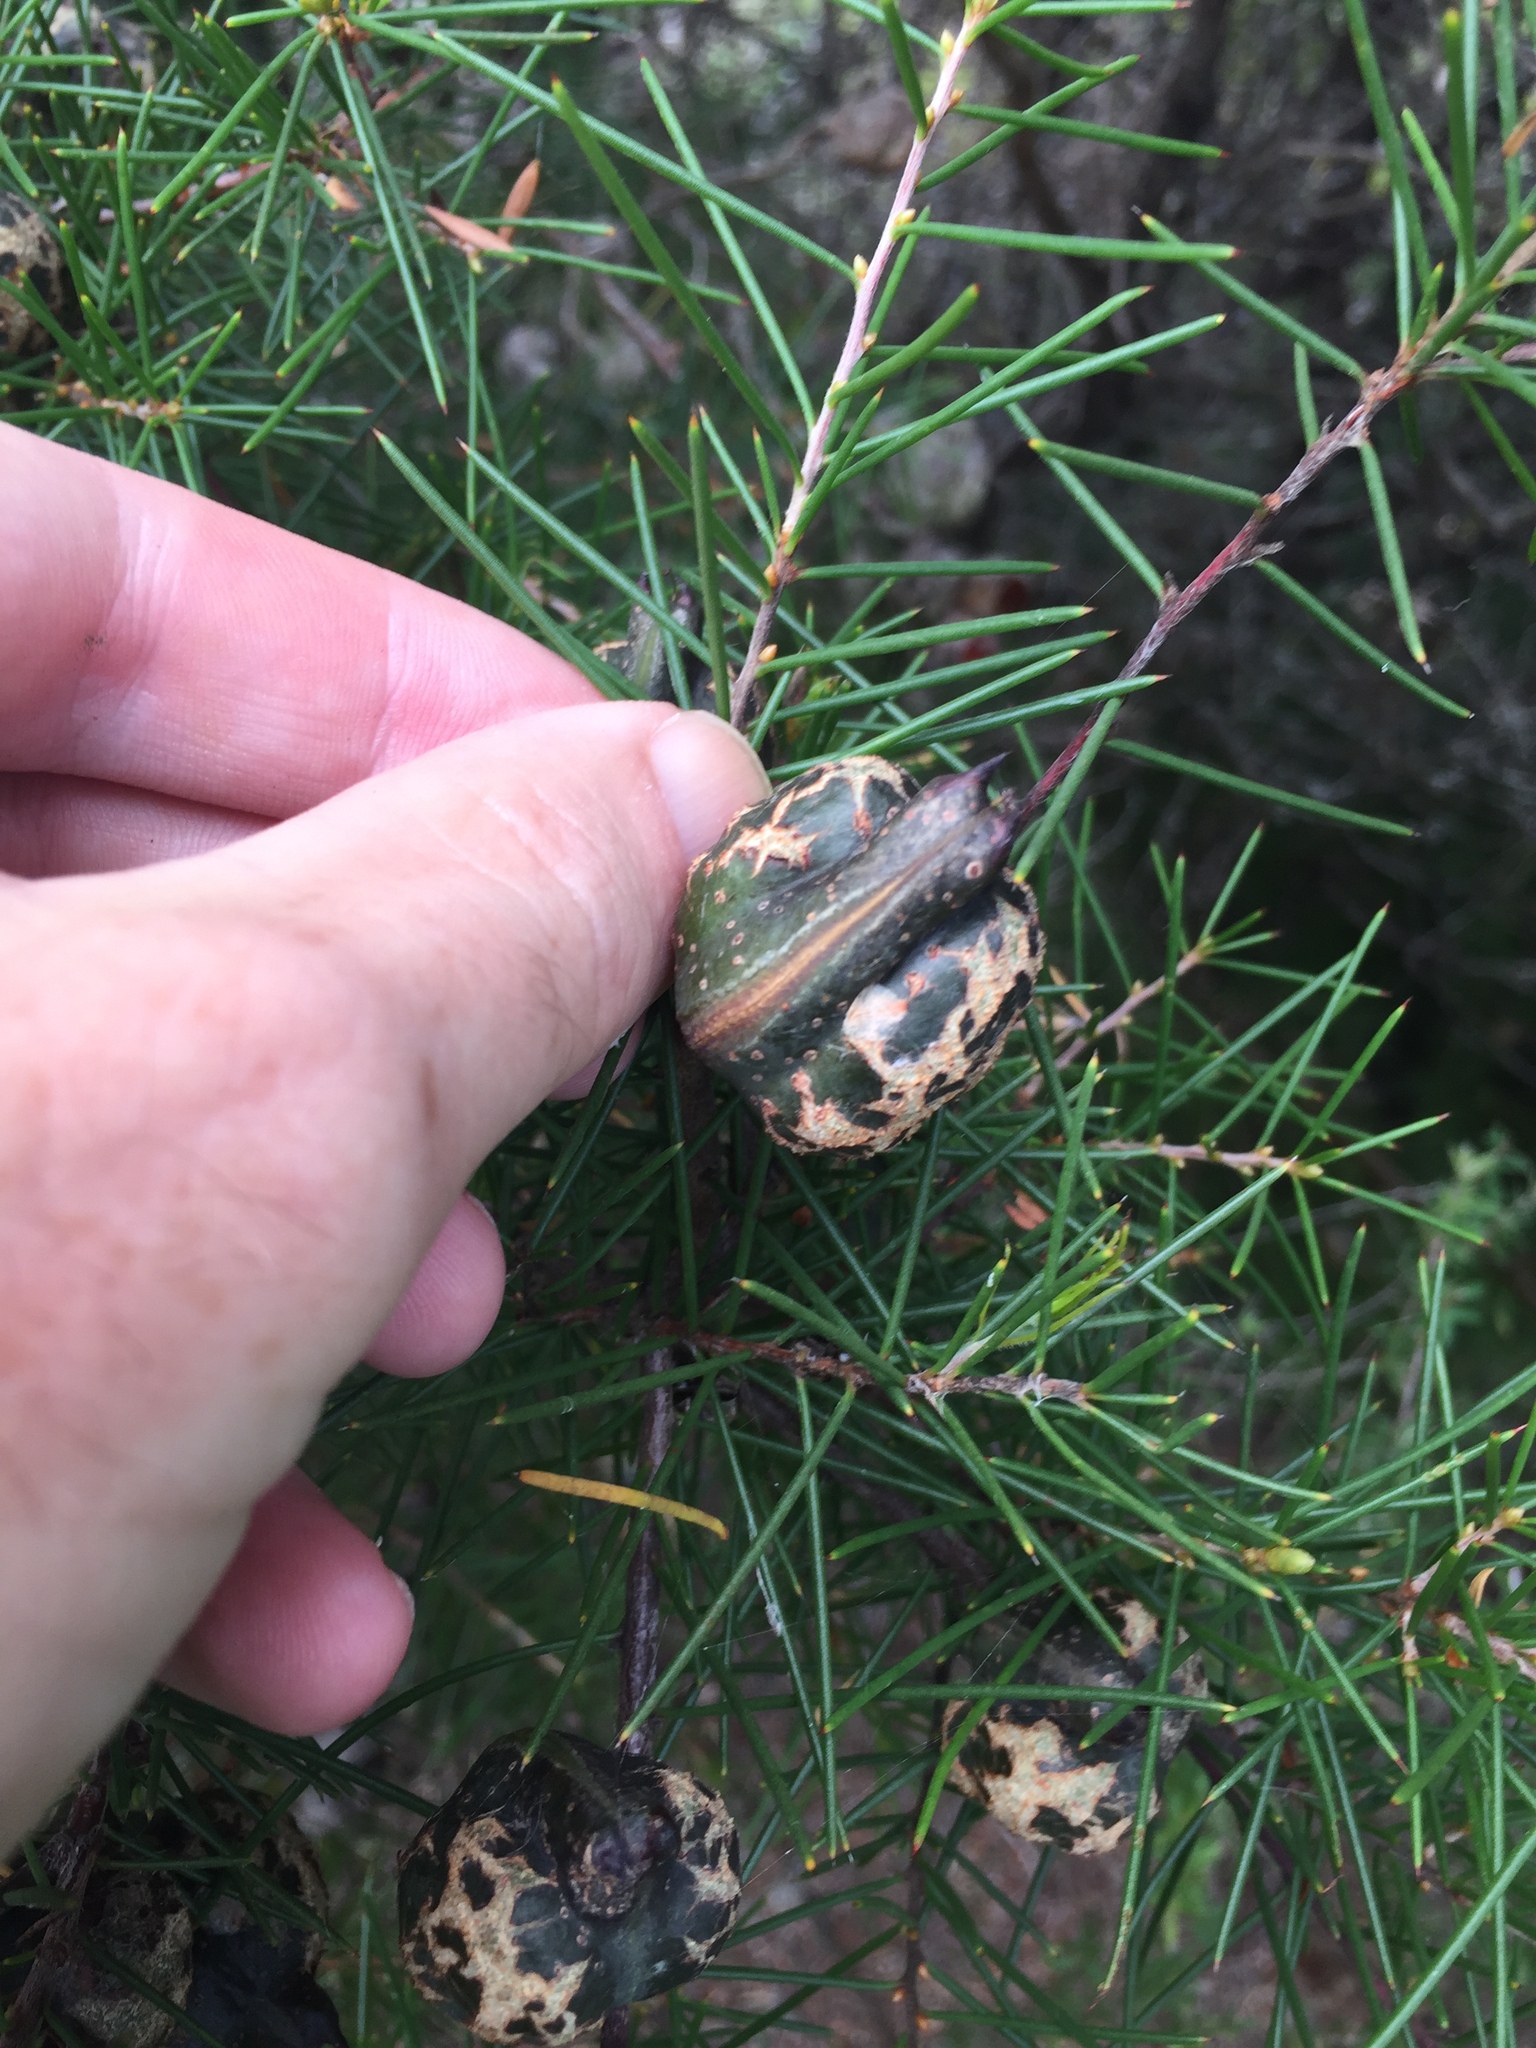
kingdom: Plantae
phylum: Tracheophyta
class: Magnoliopsida
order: Proteales
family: Proteaceae
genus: Hakea
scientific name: Hakea sericea
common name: Needle bush
